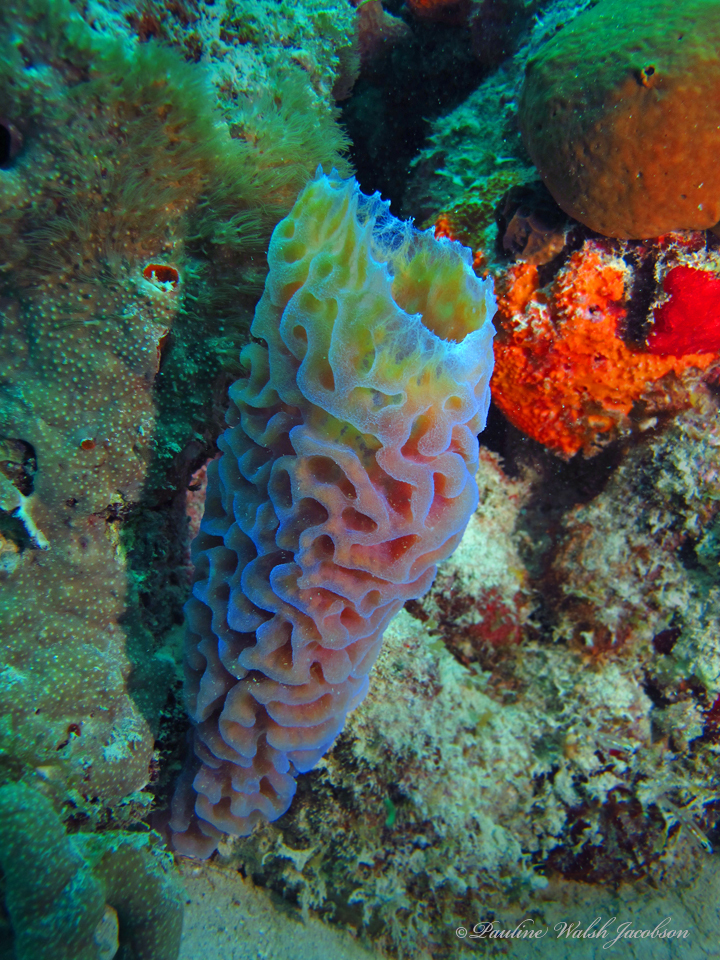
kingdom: Animalia
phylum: Porifera
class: Demospongiae
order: Haplosclerida
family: Callyspongiidae
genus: Callyspongia
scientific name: Callyspongia plicifera
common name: Azure vase sponge
